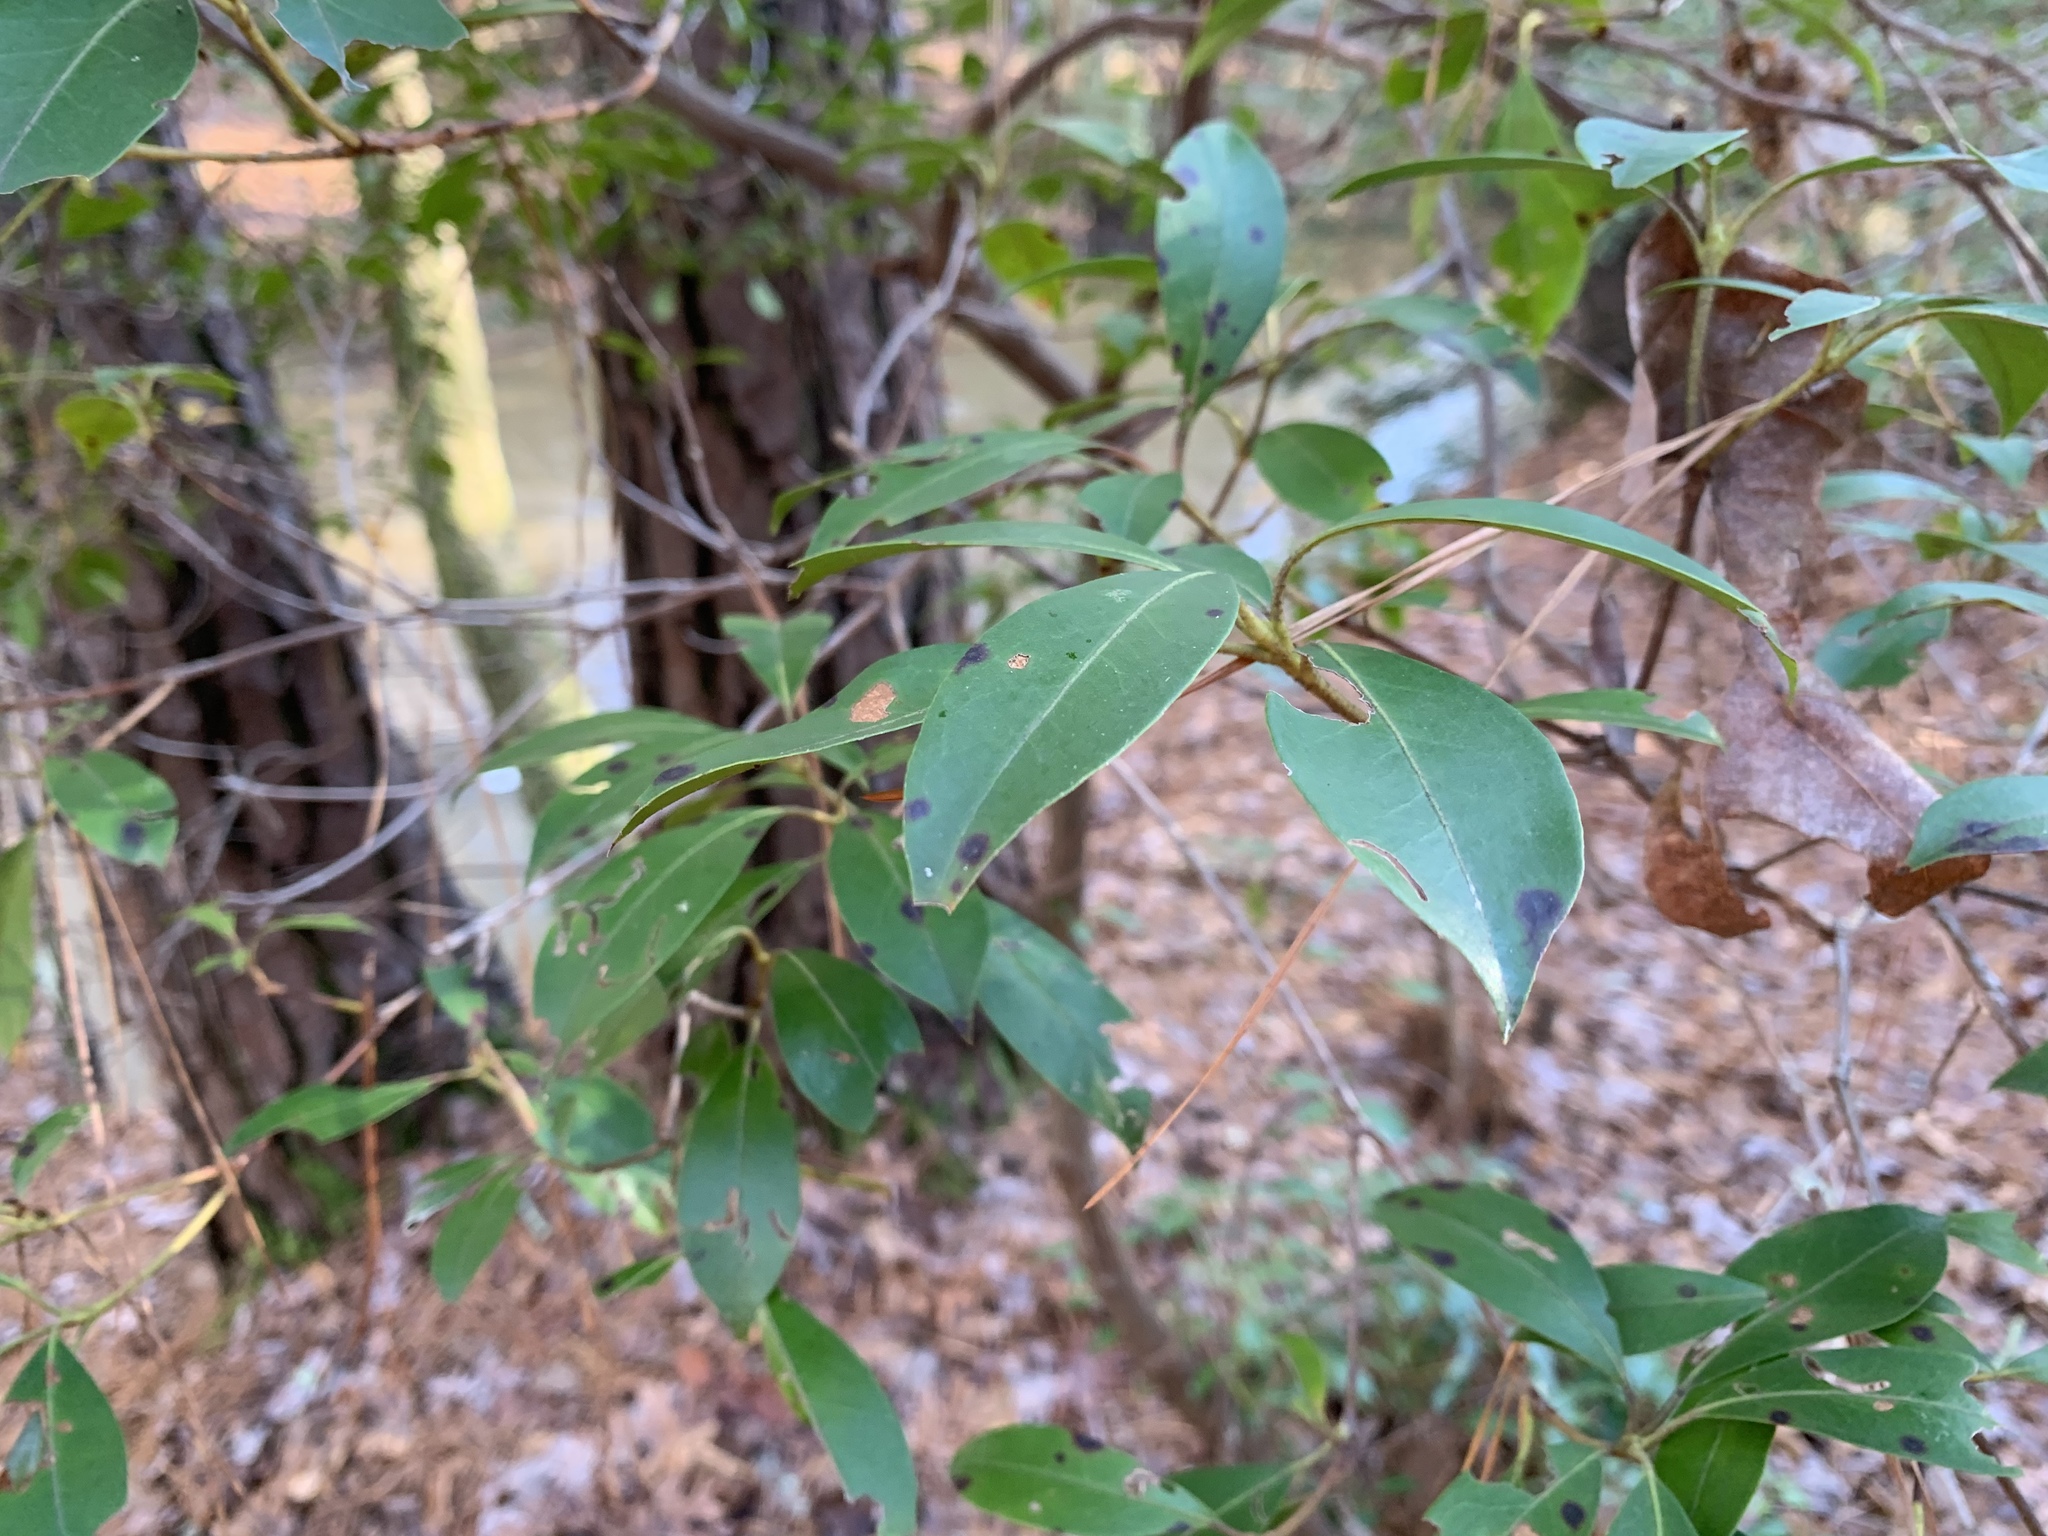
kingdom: Plantae
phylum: Tracheophyta
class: Magnoliopsida
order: Ericales
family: Ericaceae
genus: Kalmia
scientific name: Kalmia latifolia
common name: Mountain-laurel
